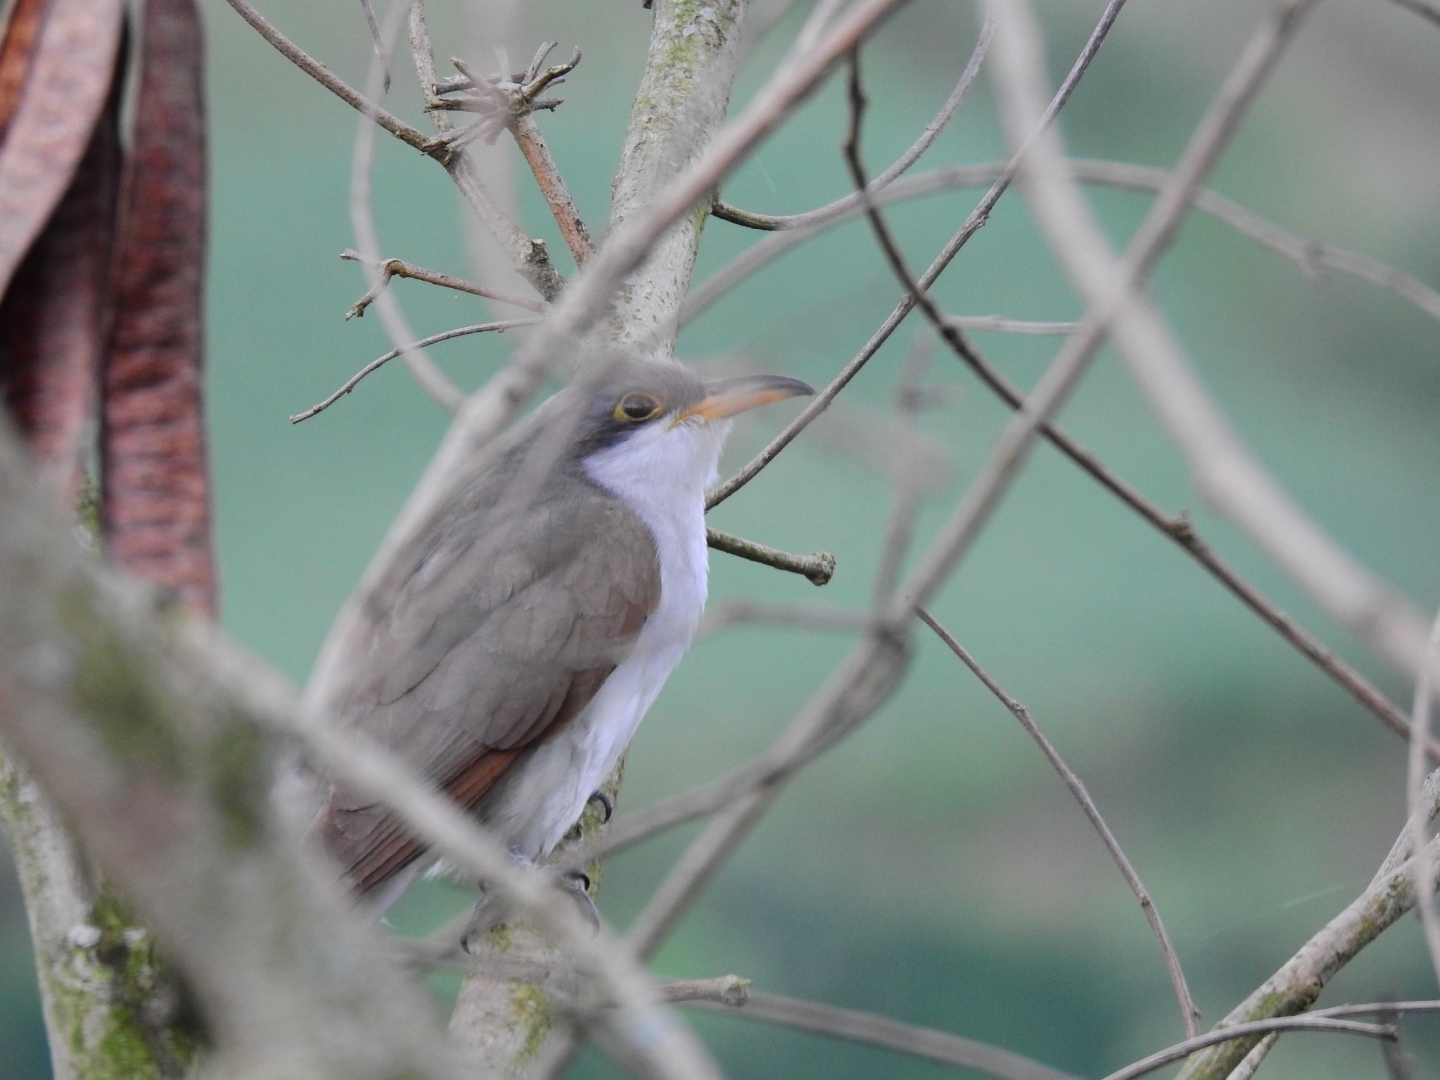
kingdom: Animalia
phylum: Chordata
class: Aves
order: Cuculiformes
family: Cuculidae
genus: Coccyzus
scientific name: Coccyzus americanus
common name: Yellow-billed cuckoo
